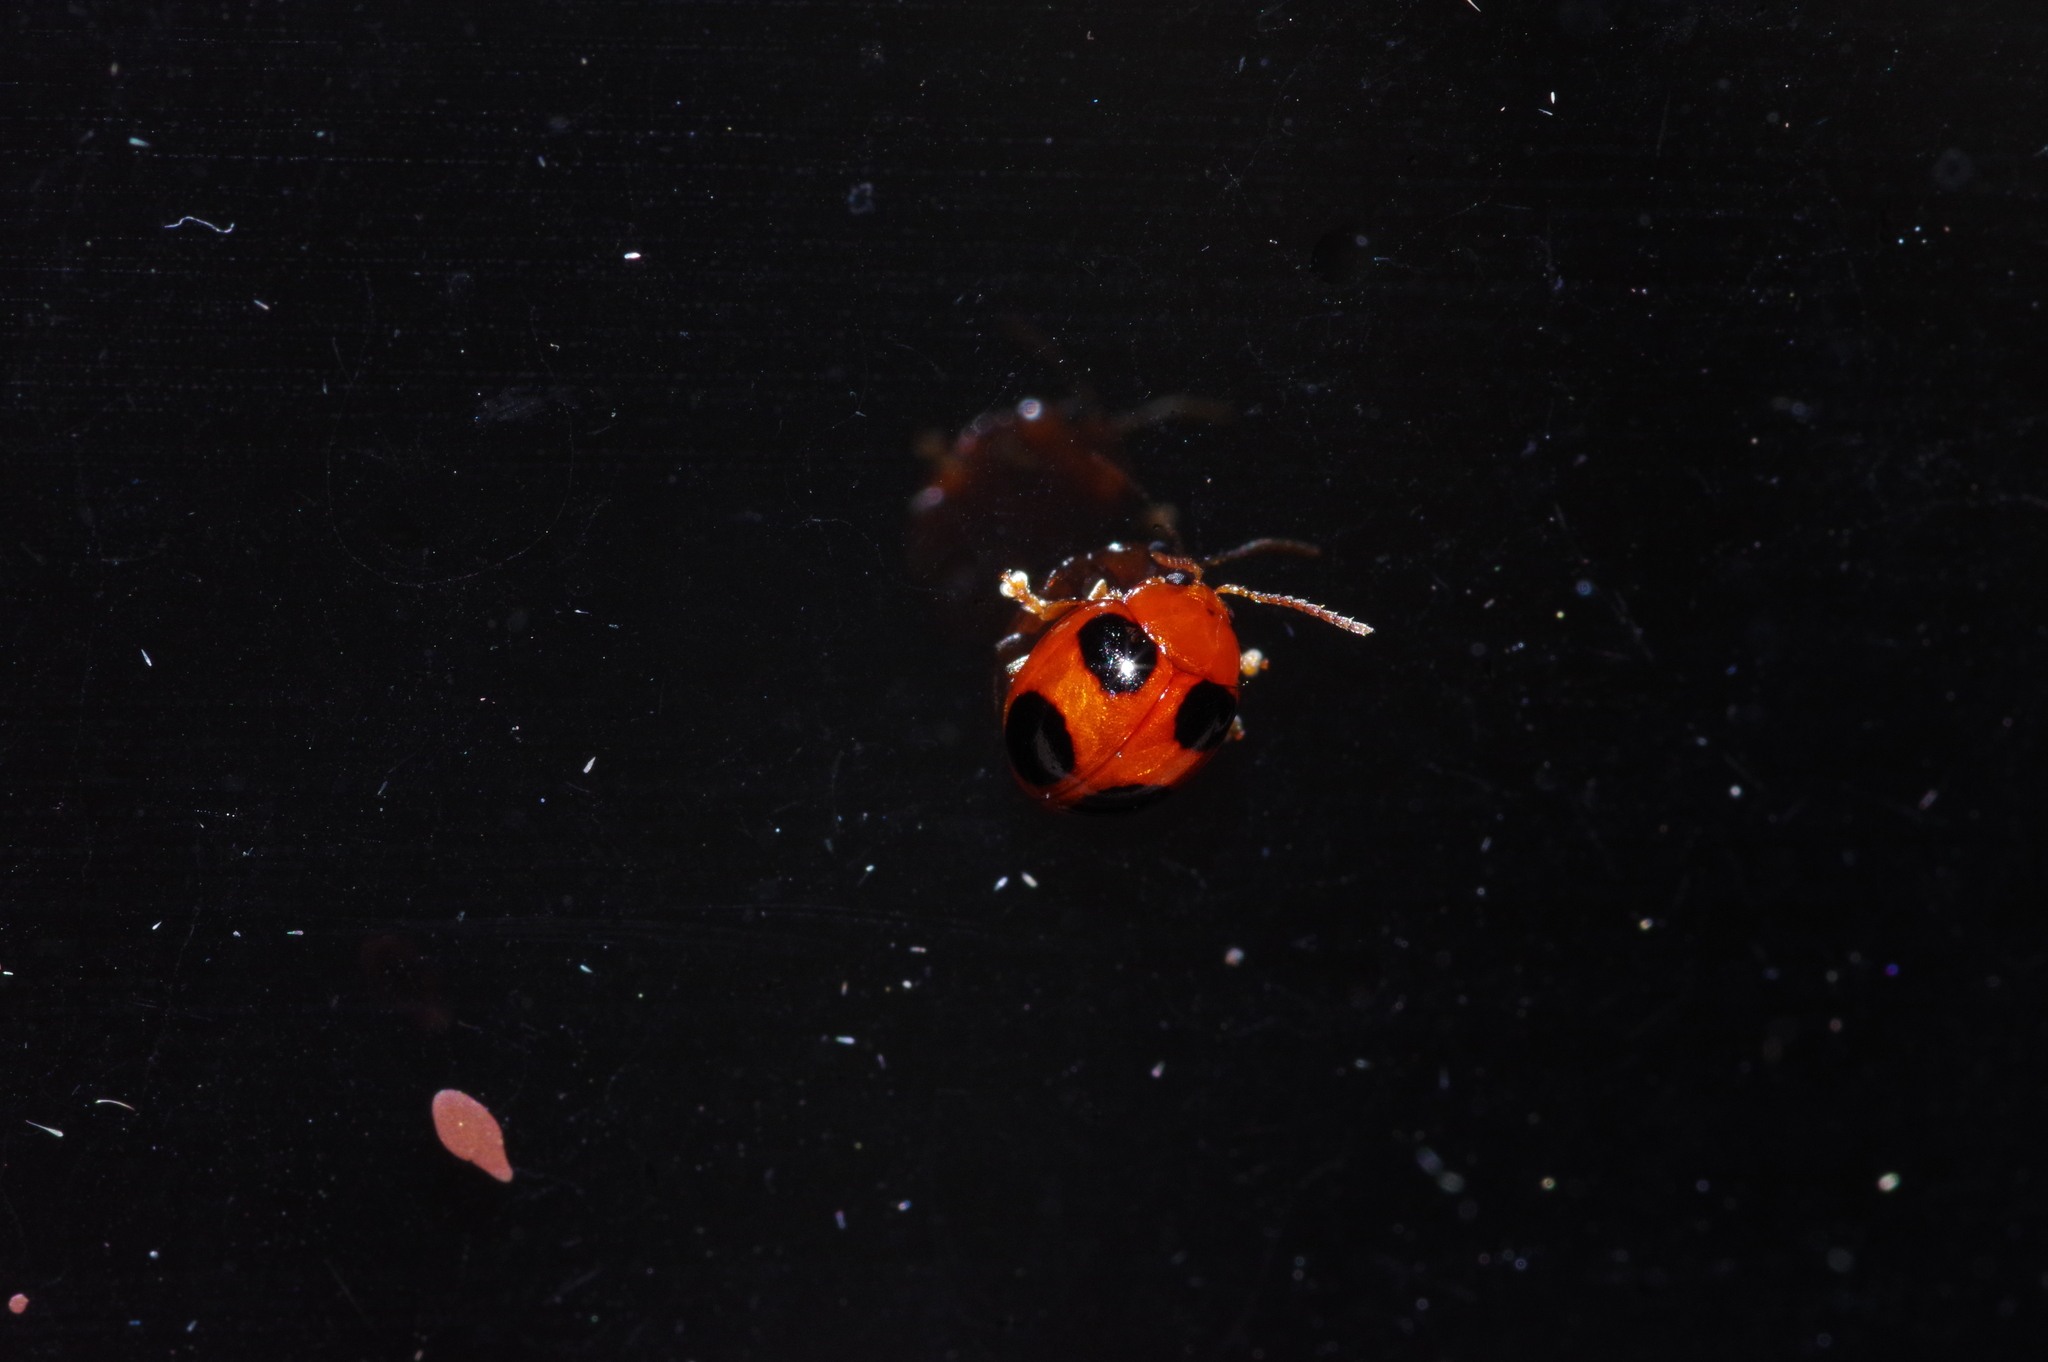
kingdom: Animalia
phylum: Arthropoda
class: Insecta
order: Coleoptera
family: Chrysomelidae
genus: Sphaeroderma
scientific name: Sphaeroderma
